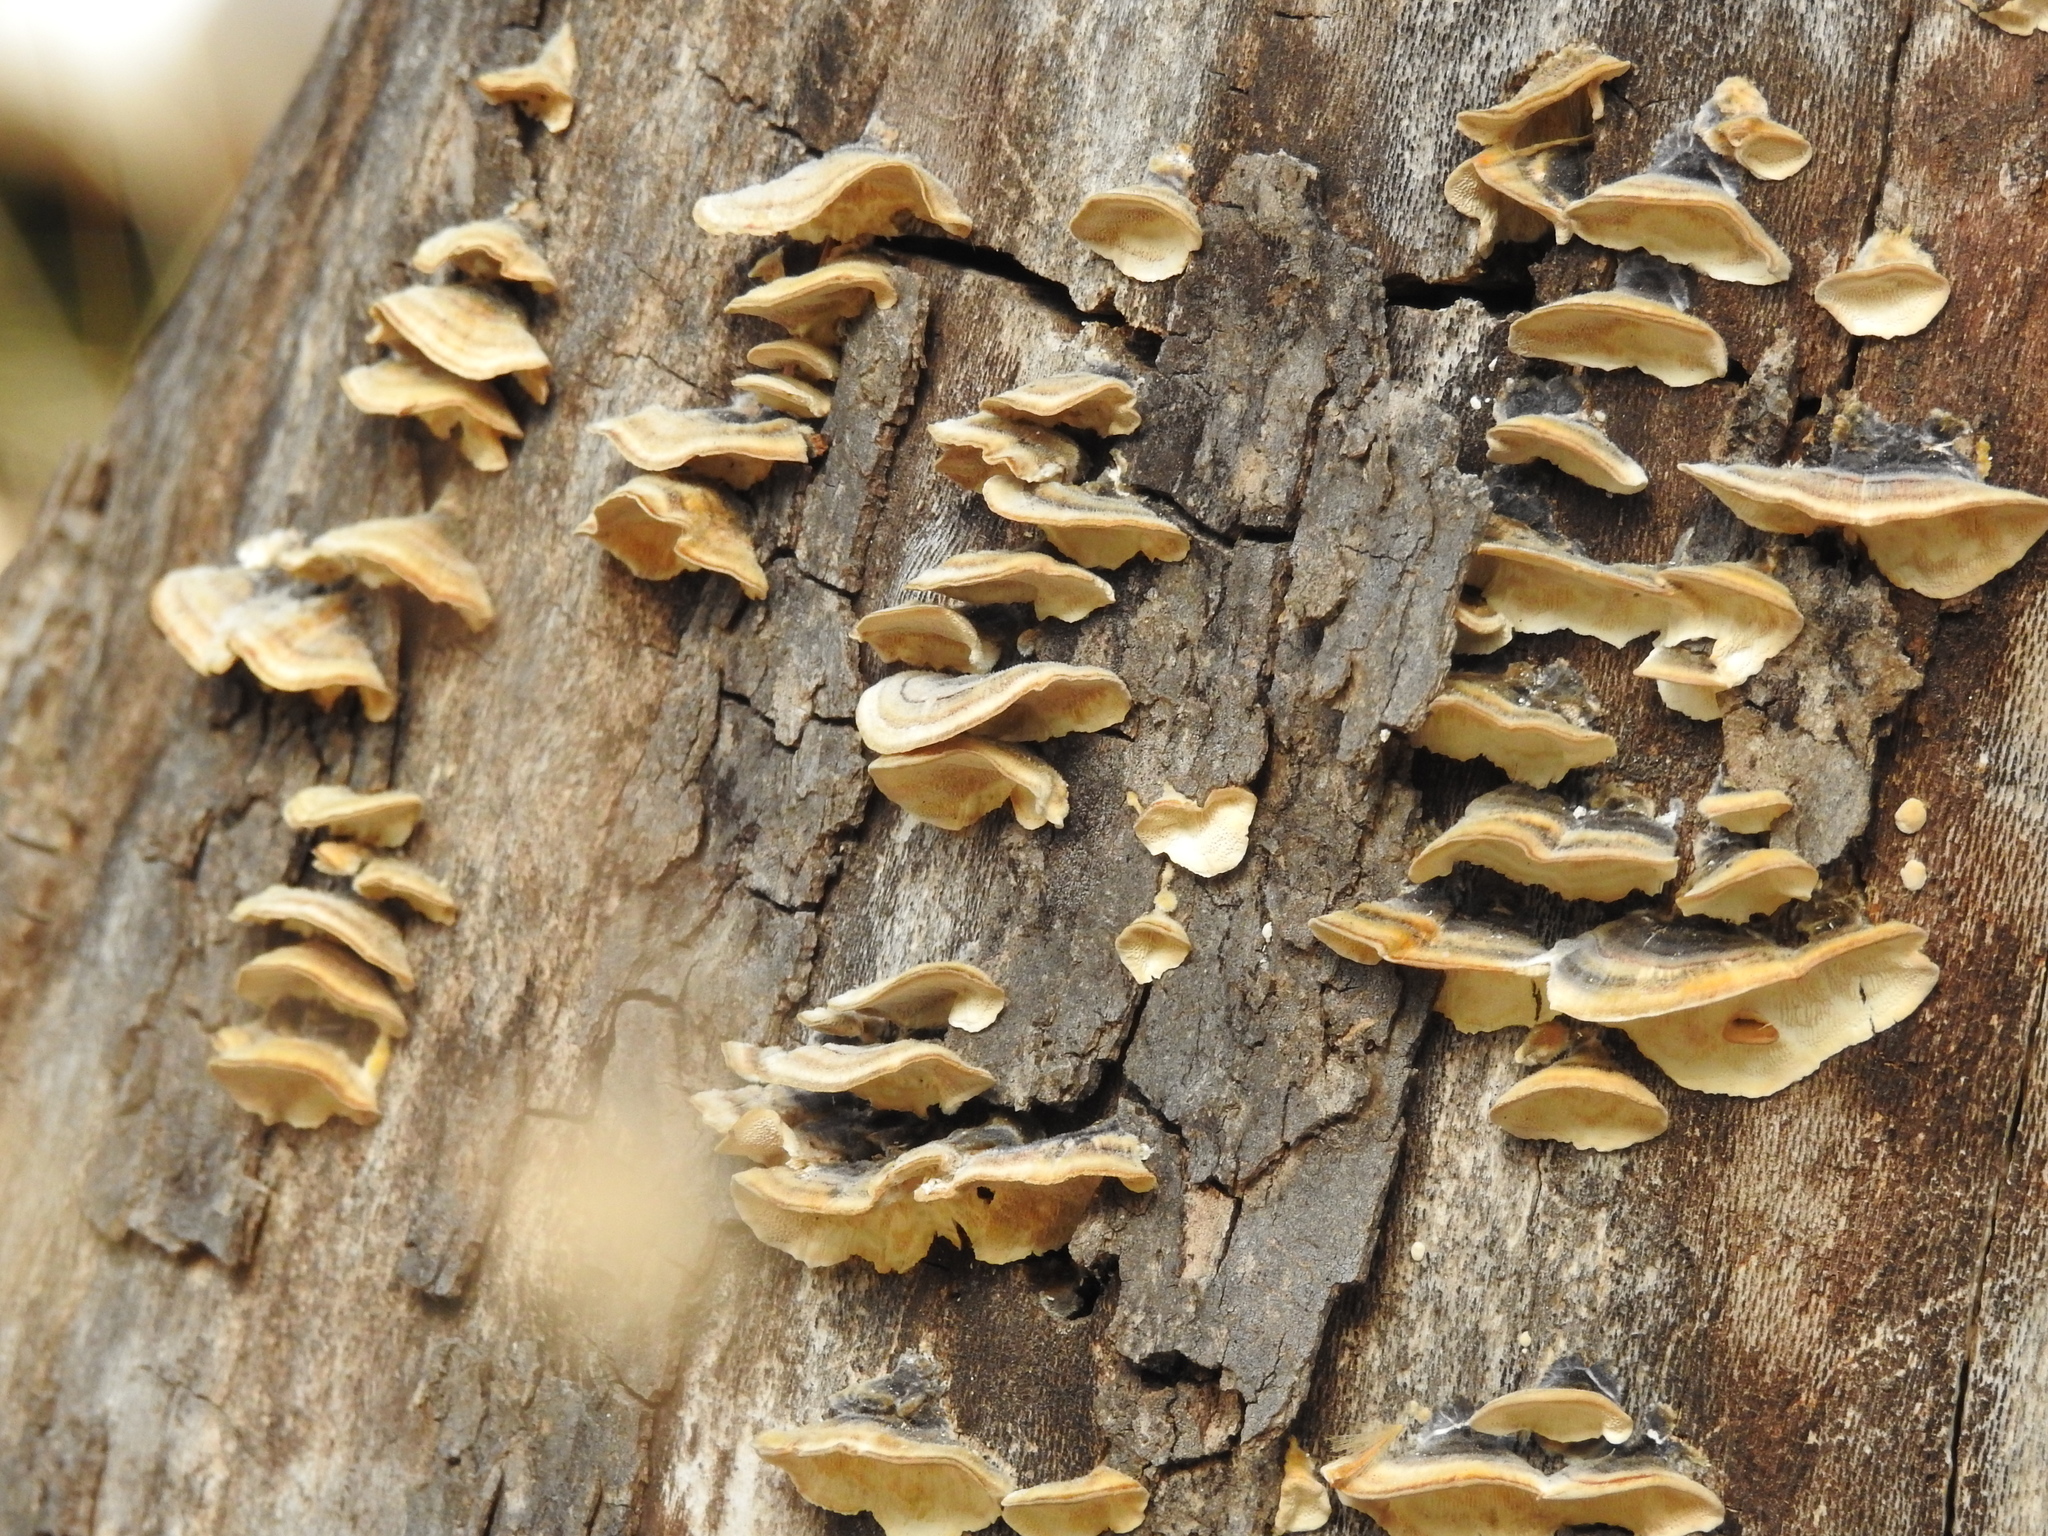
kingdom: Fungi
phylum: Basidiomycota
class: Agaricomycetes
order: Polyporales
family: Polyporaceae
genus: Trametes
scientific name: Trametes
